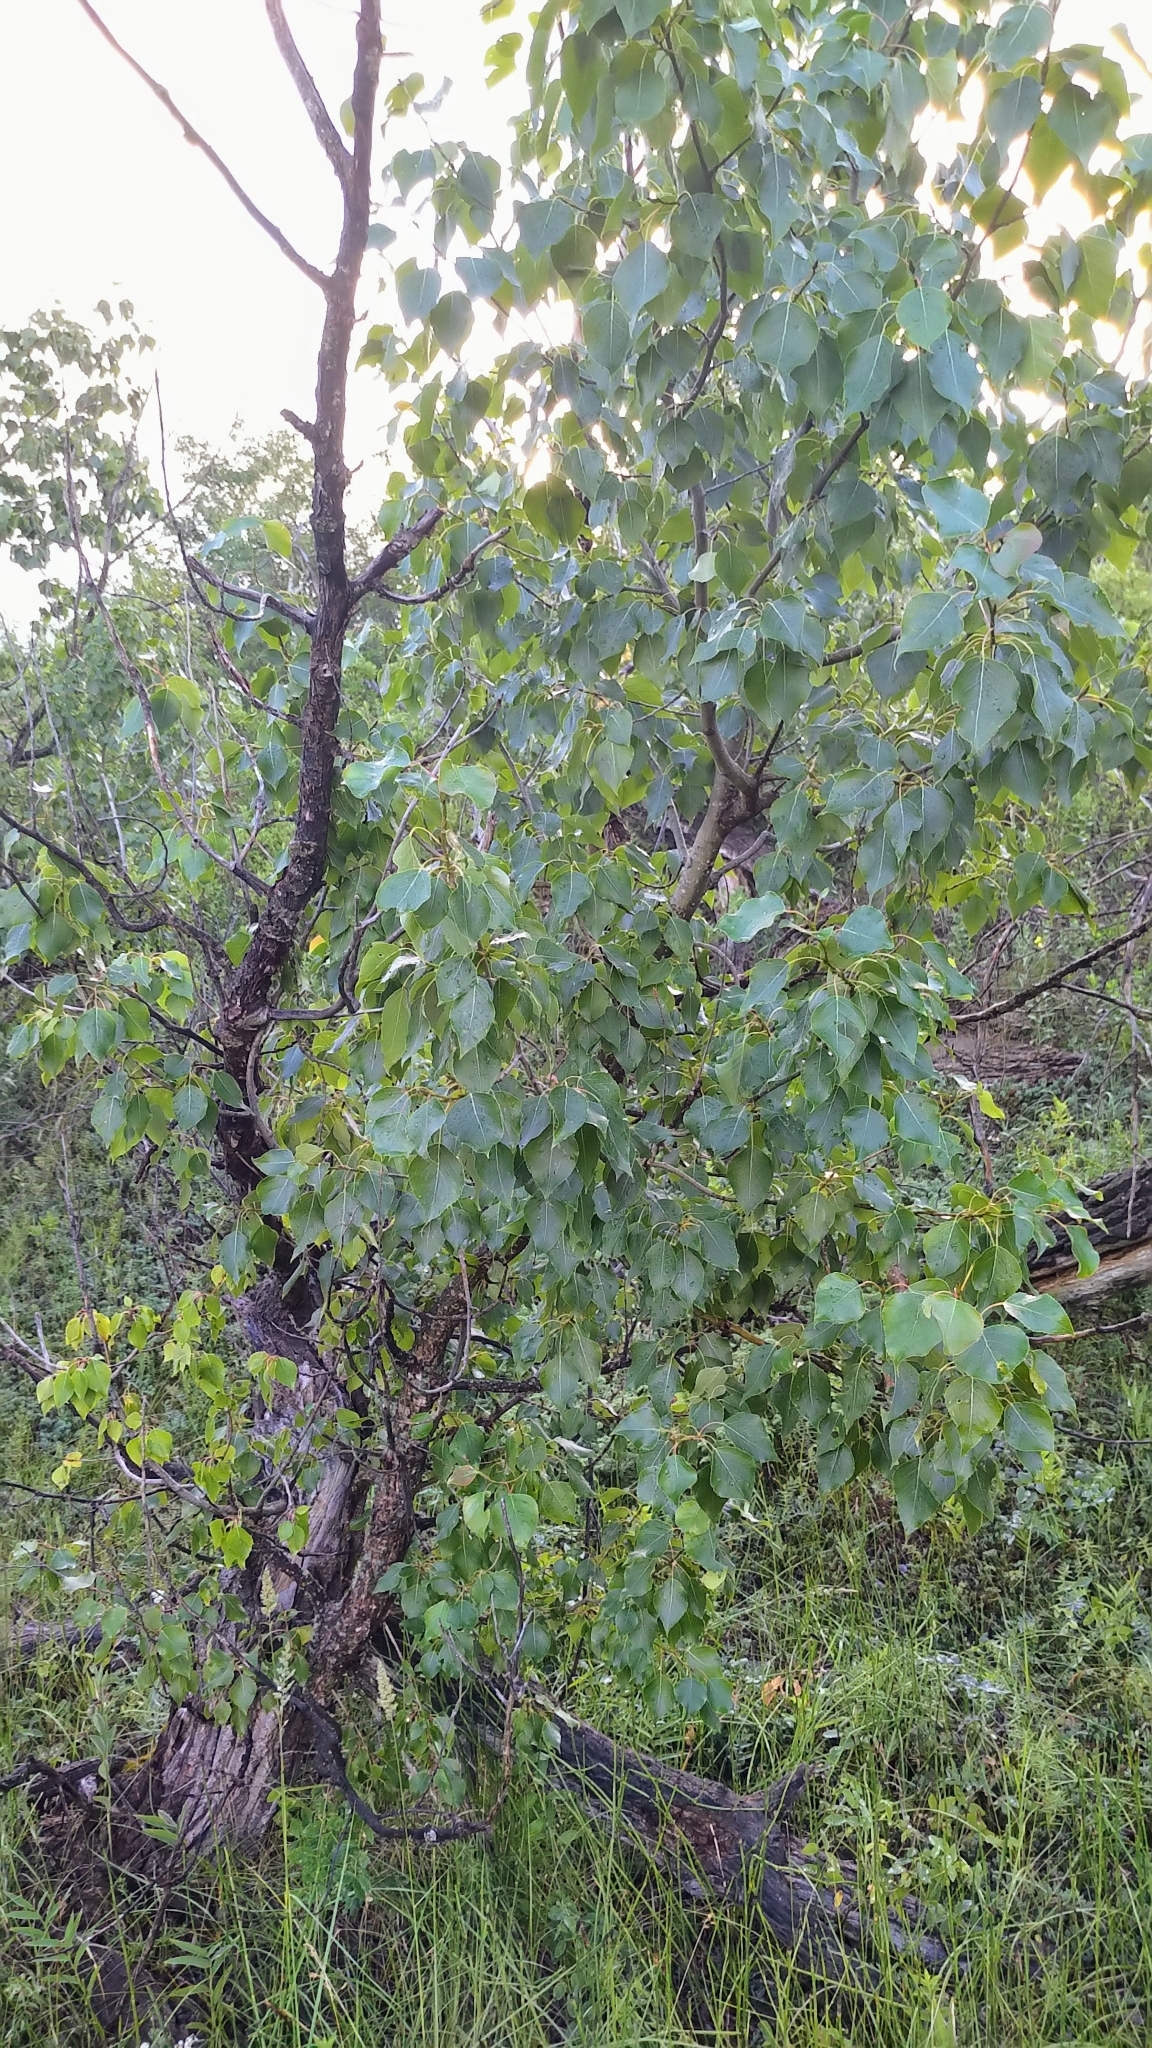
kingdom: Plantae
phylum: Tracheophyta
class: Magnoliopsida
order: Malpighiales
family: Salicaceae
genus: Populus
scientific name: Populus balsamifera
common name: Balsam poplar
